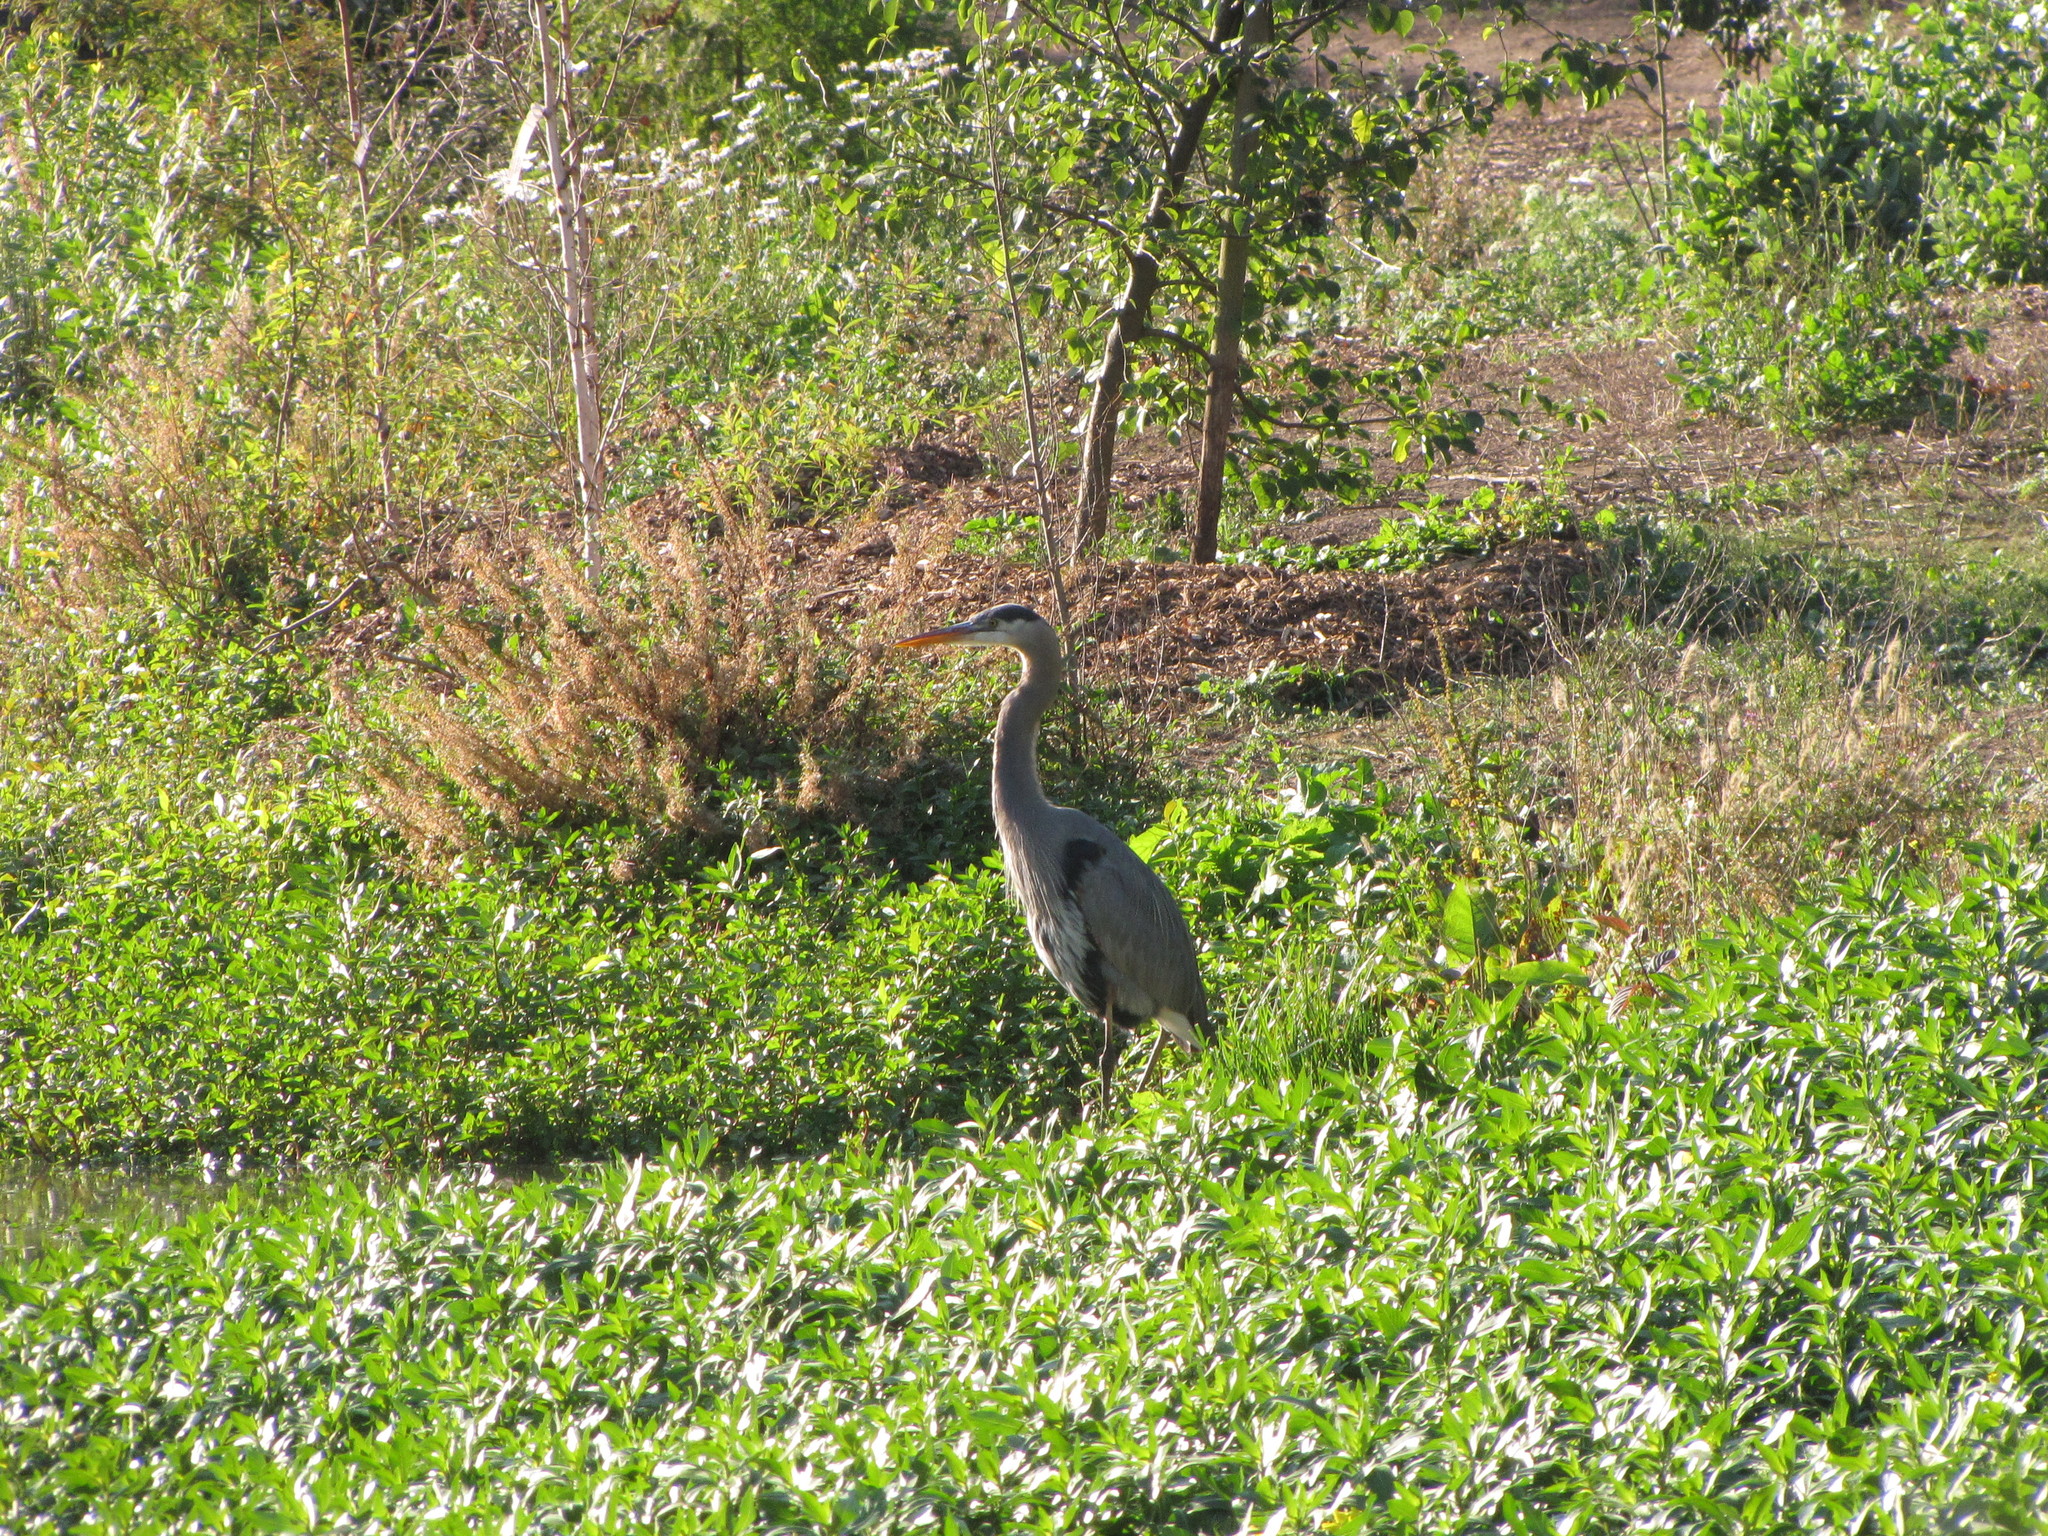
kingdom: Animalia
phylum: Chordata
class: Aves
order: Pelecaniformes
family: Ardeidae
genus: Ardea
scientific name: Ardea herodias
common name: Great blue heron
